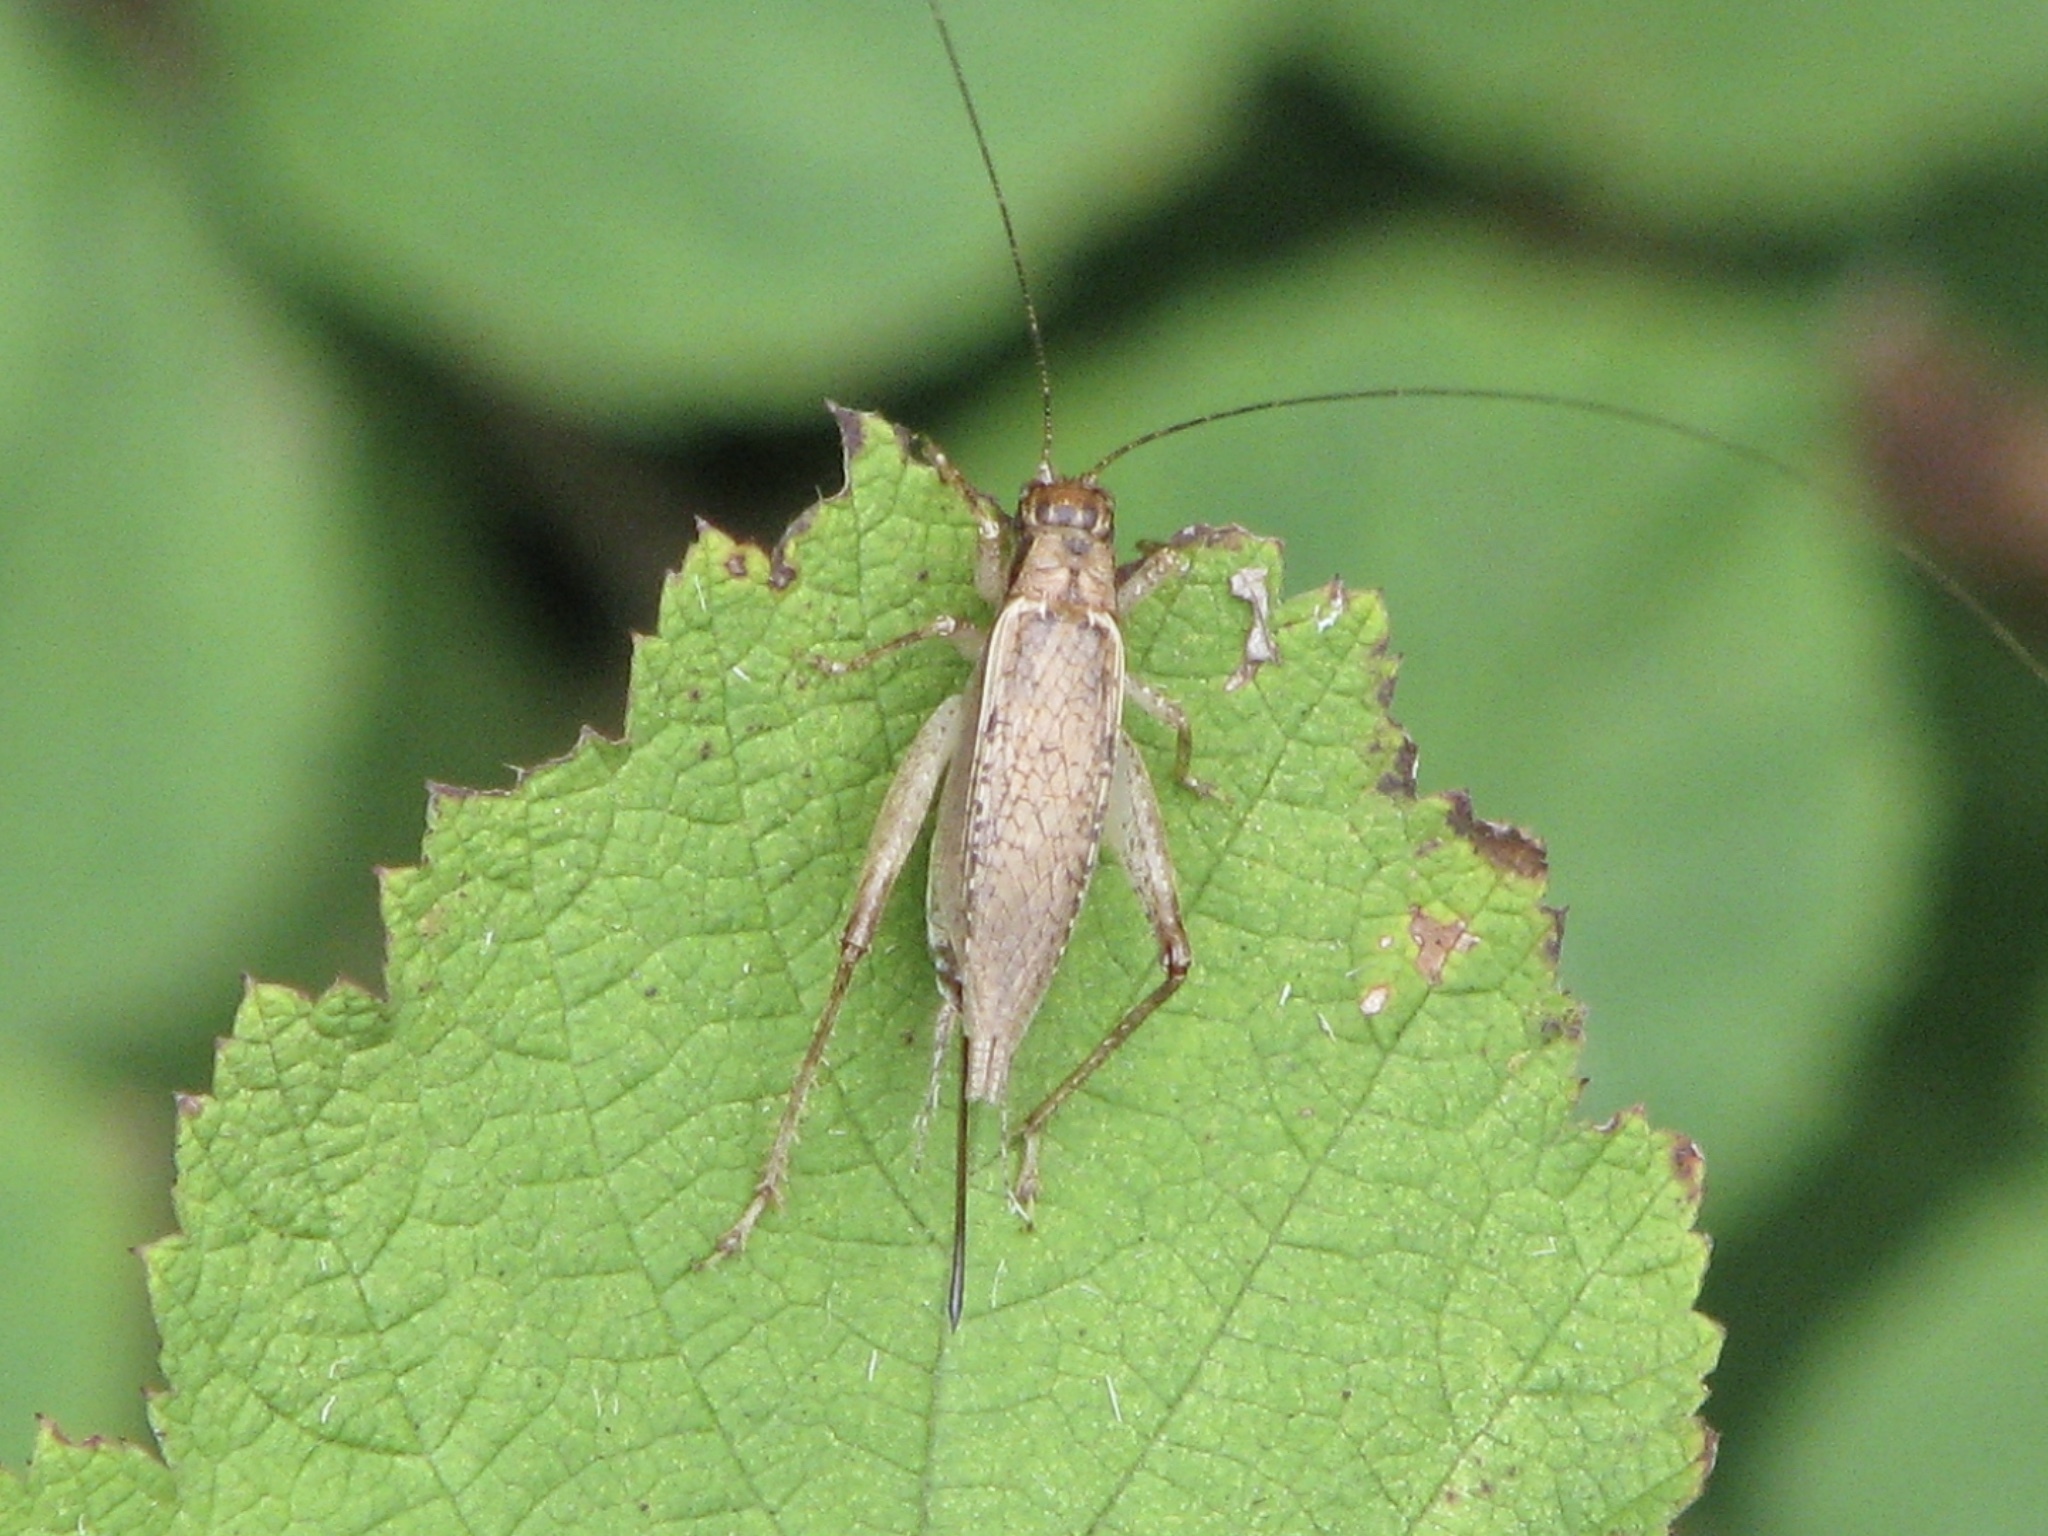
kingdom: Animalia
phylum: Arthropoda
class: Insecta
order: Orthoptera
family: Gryllidae
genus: Hapithus
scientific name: Hapithus saltator
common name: Jumping bush cricket
